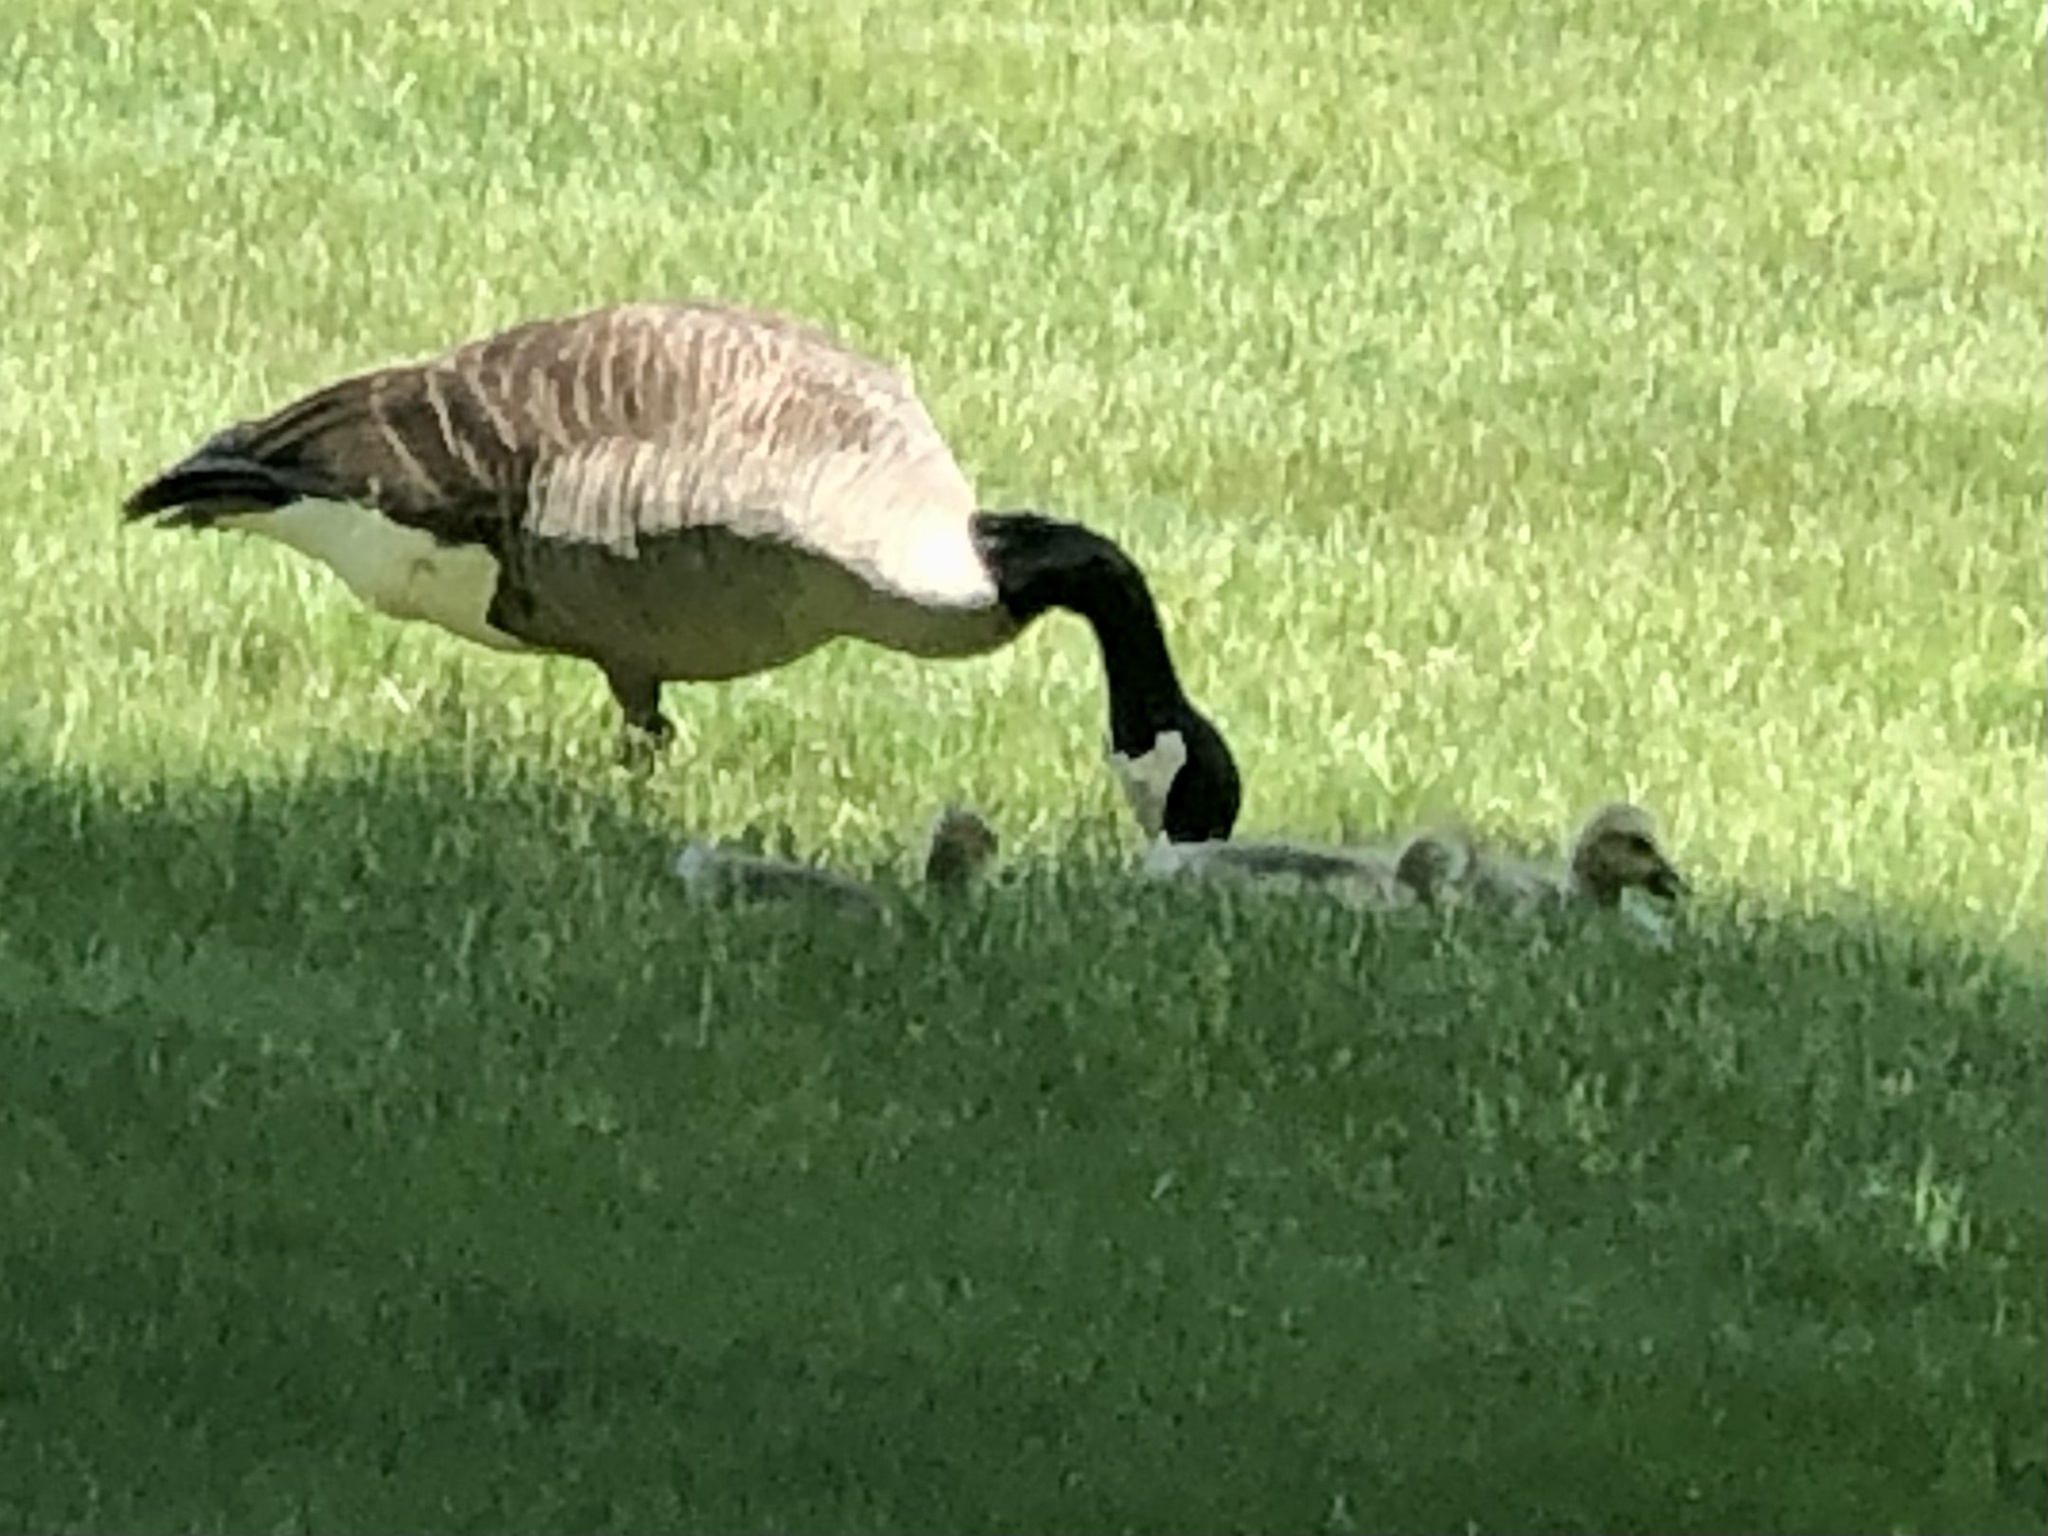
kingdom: Animalia
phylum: Chordata
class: Aves
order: Anseriformes
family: Anatidae
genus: Branta
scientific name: Branta canadensis
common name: Canada goose
